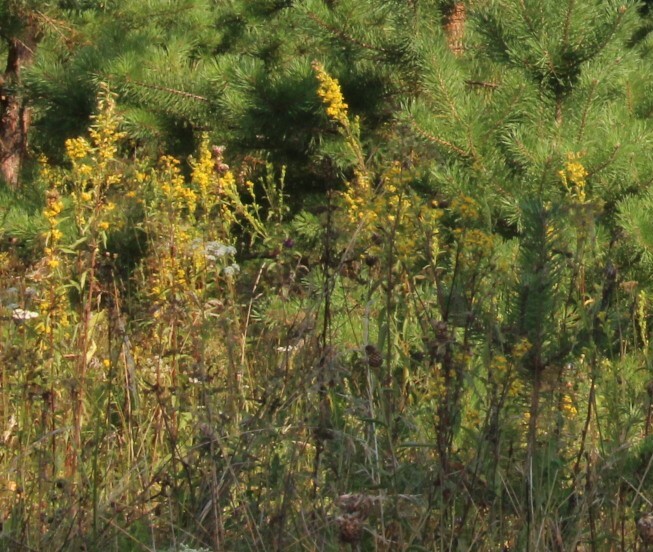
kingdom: Plantae
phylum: Tracheophyta
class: Magnoliopsida
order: Asterales
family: Asteraceae
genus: Solidago
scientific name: Solidago virgaurea
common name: Goldenrod
